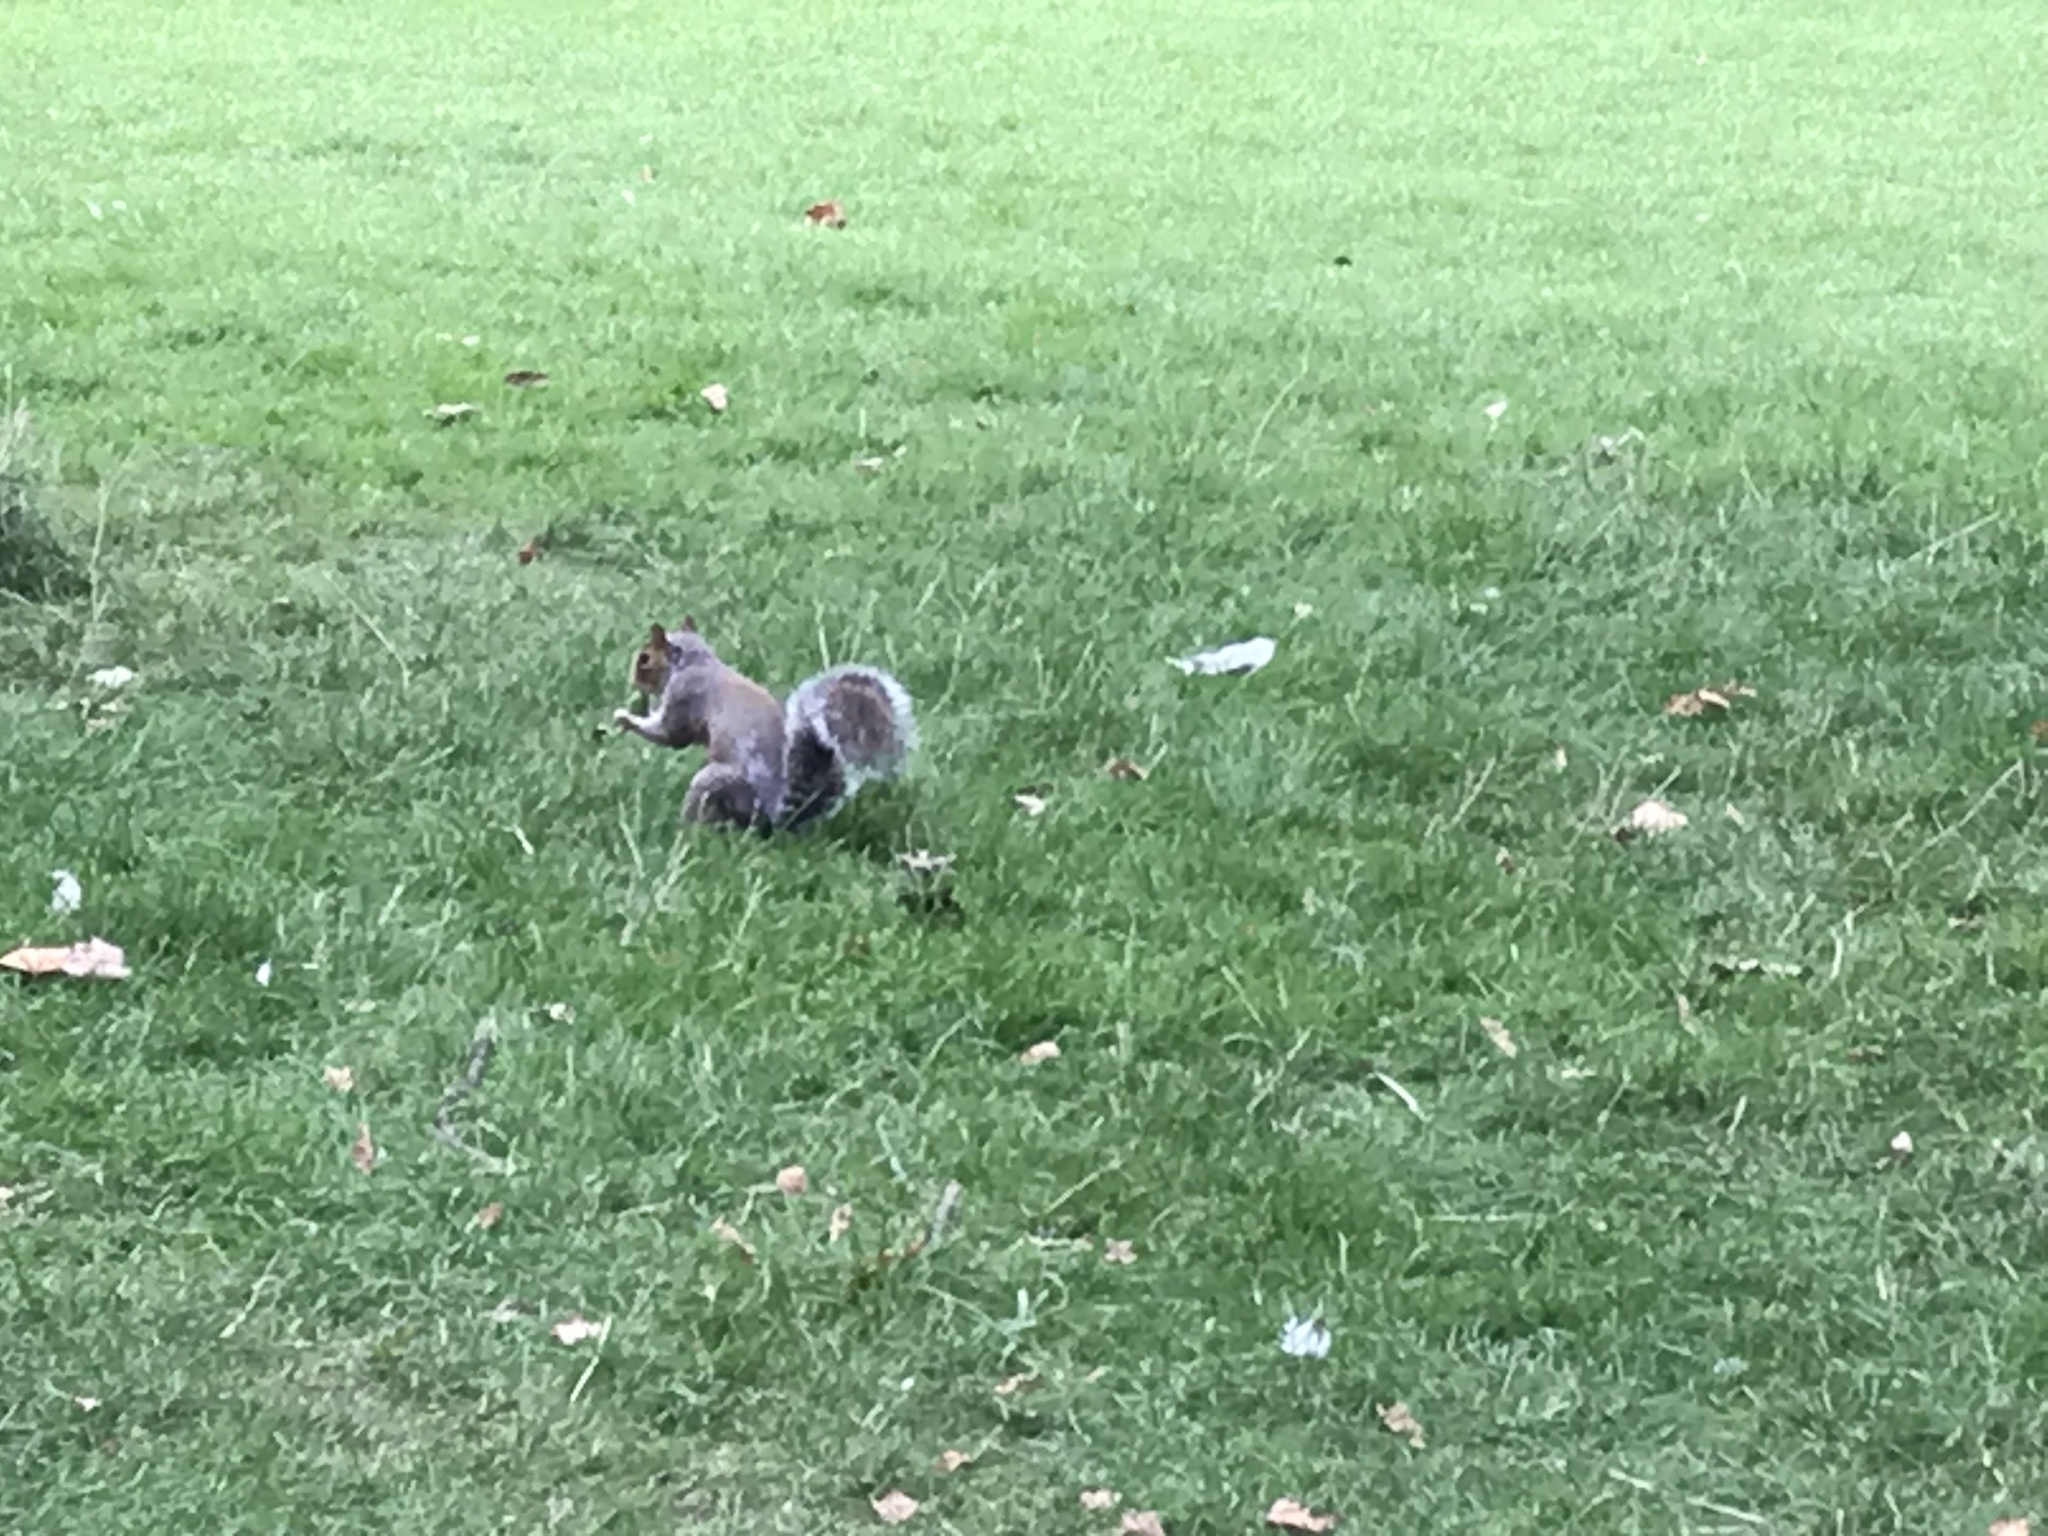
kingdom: Animalia
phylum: Chordata
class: Mammalia
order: Rodentia
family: Sciuridae
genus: Sciurus
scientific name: Sciurus carolinensis
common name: Eastern gray squirrel
